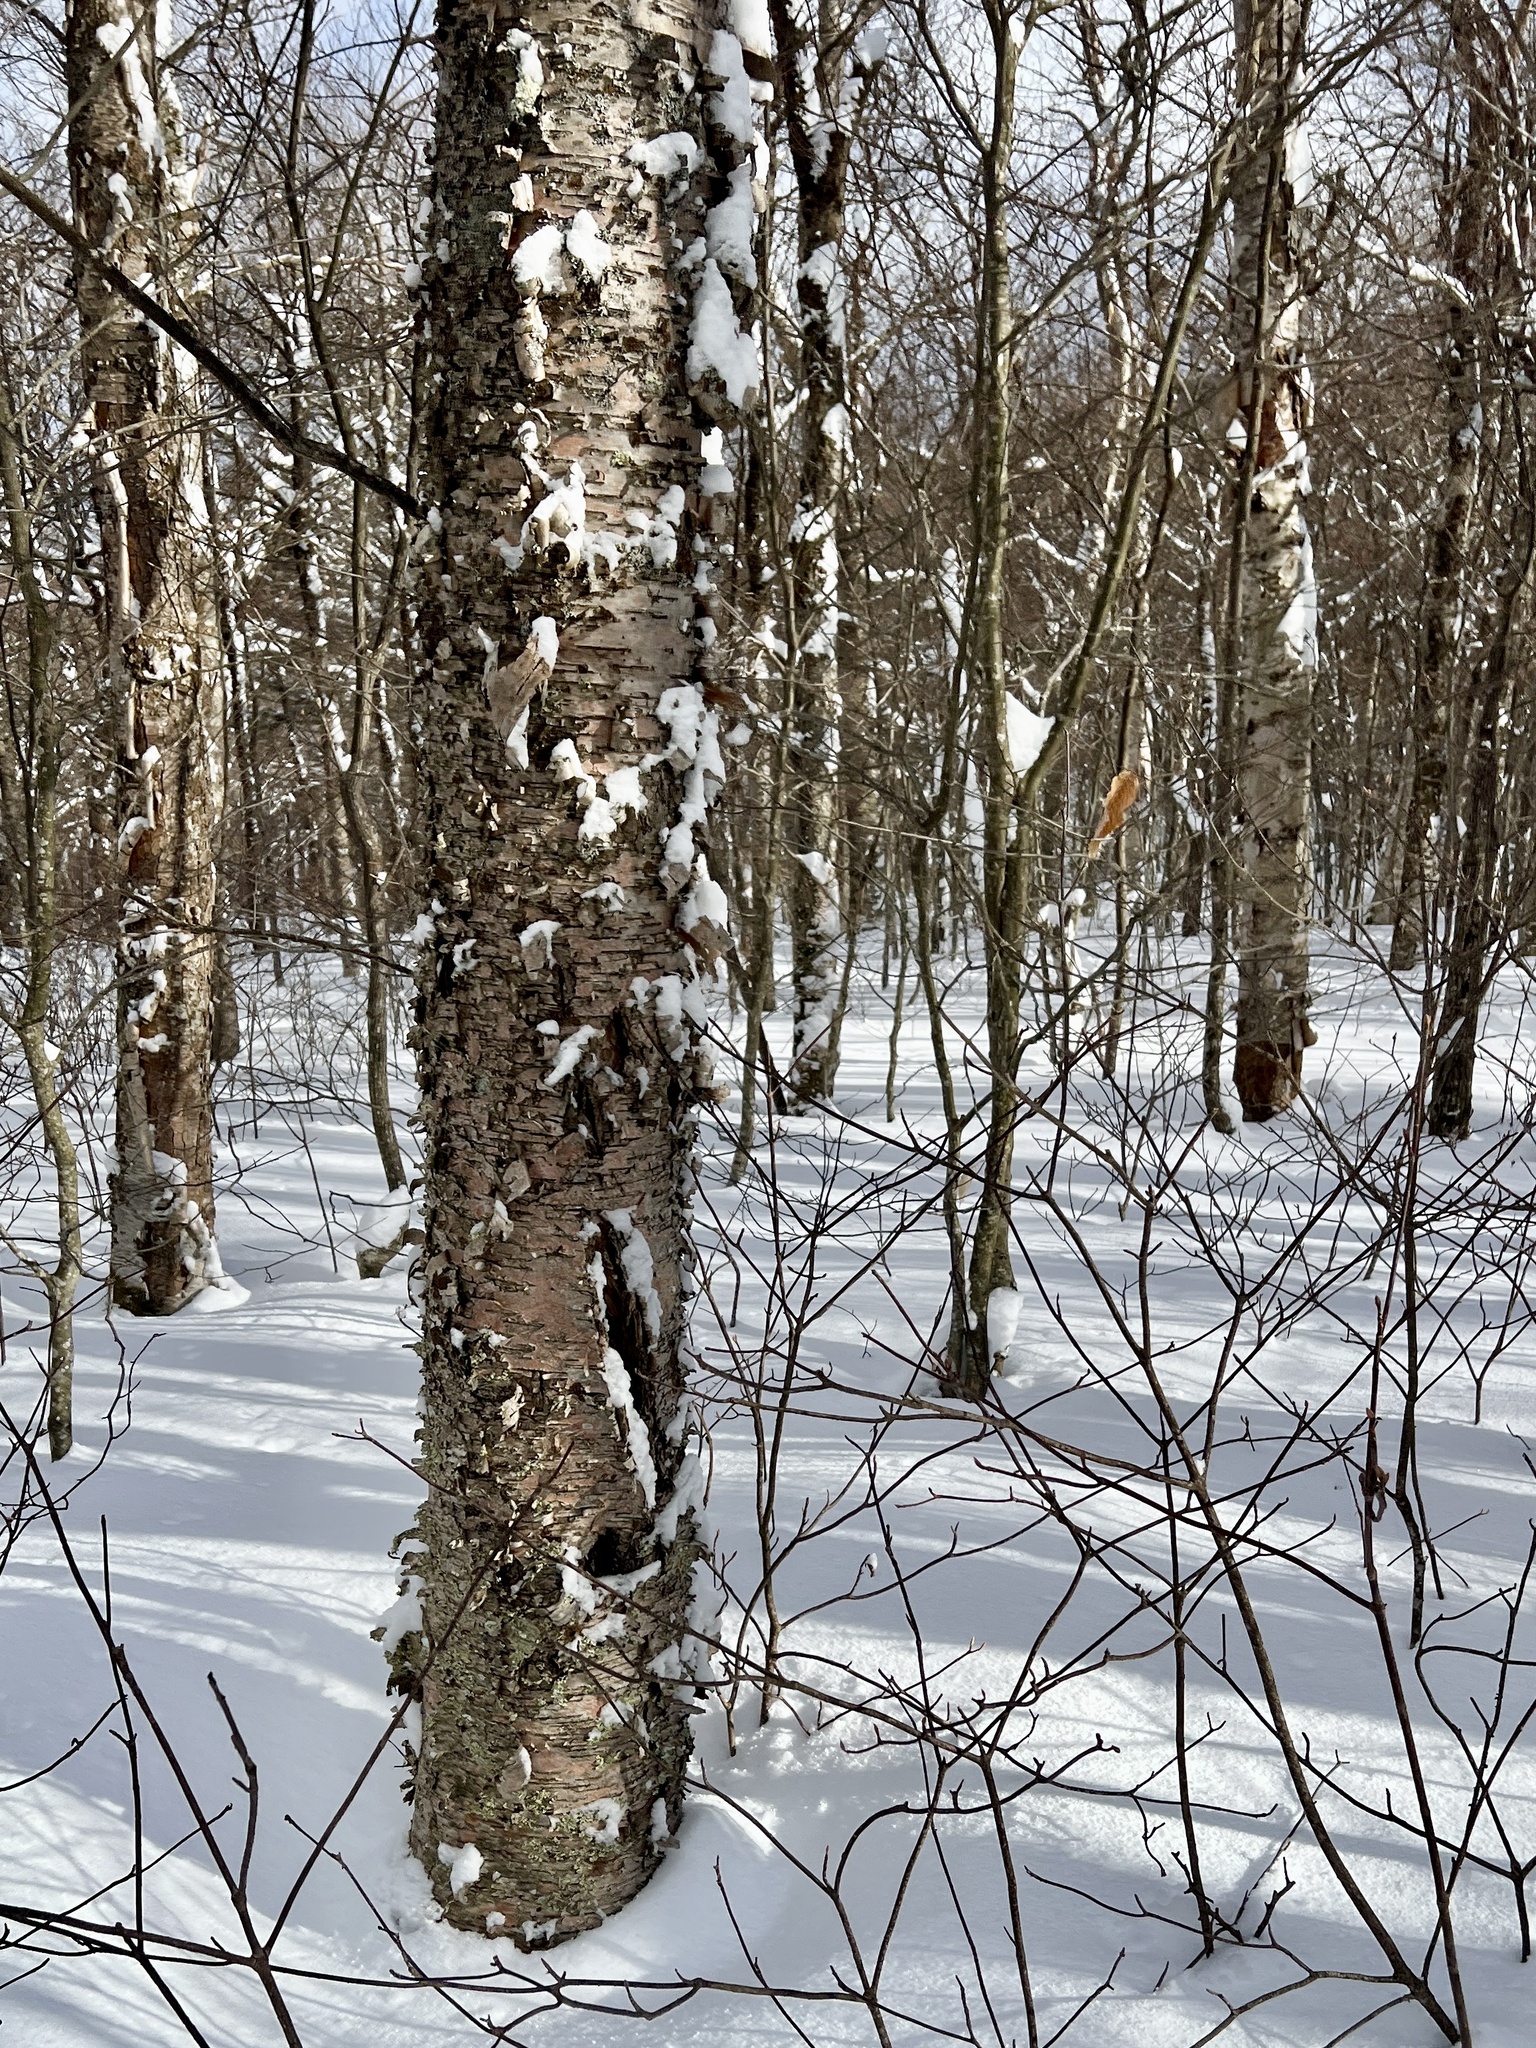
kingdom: Plantae
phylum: Tracheophyta
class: Magnoliopsida
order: Fagales
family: Betulaceae
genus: Betula
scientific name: Betula alleghaniensis
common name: Yellow birch
